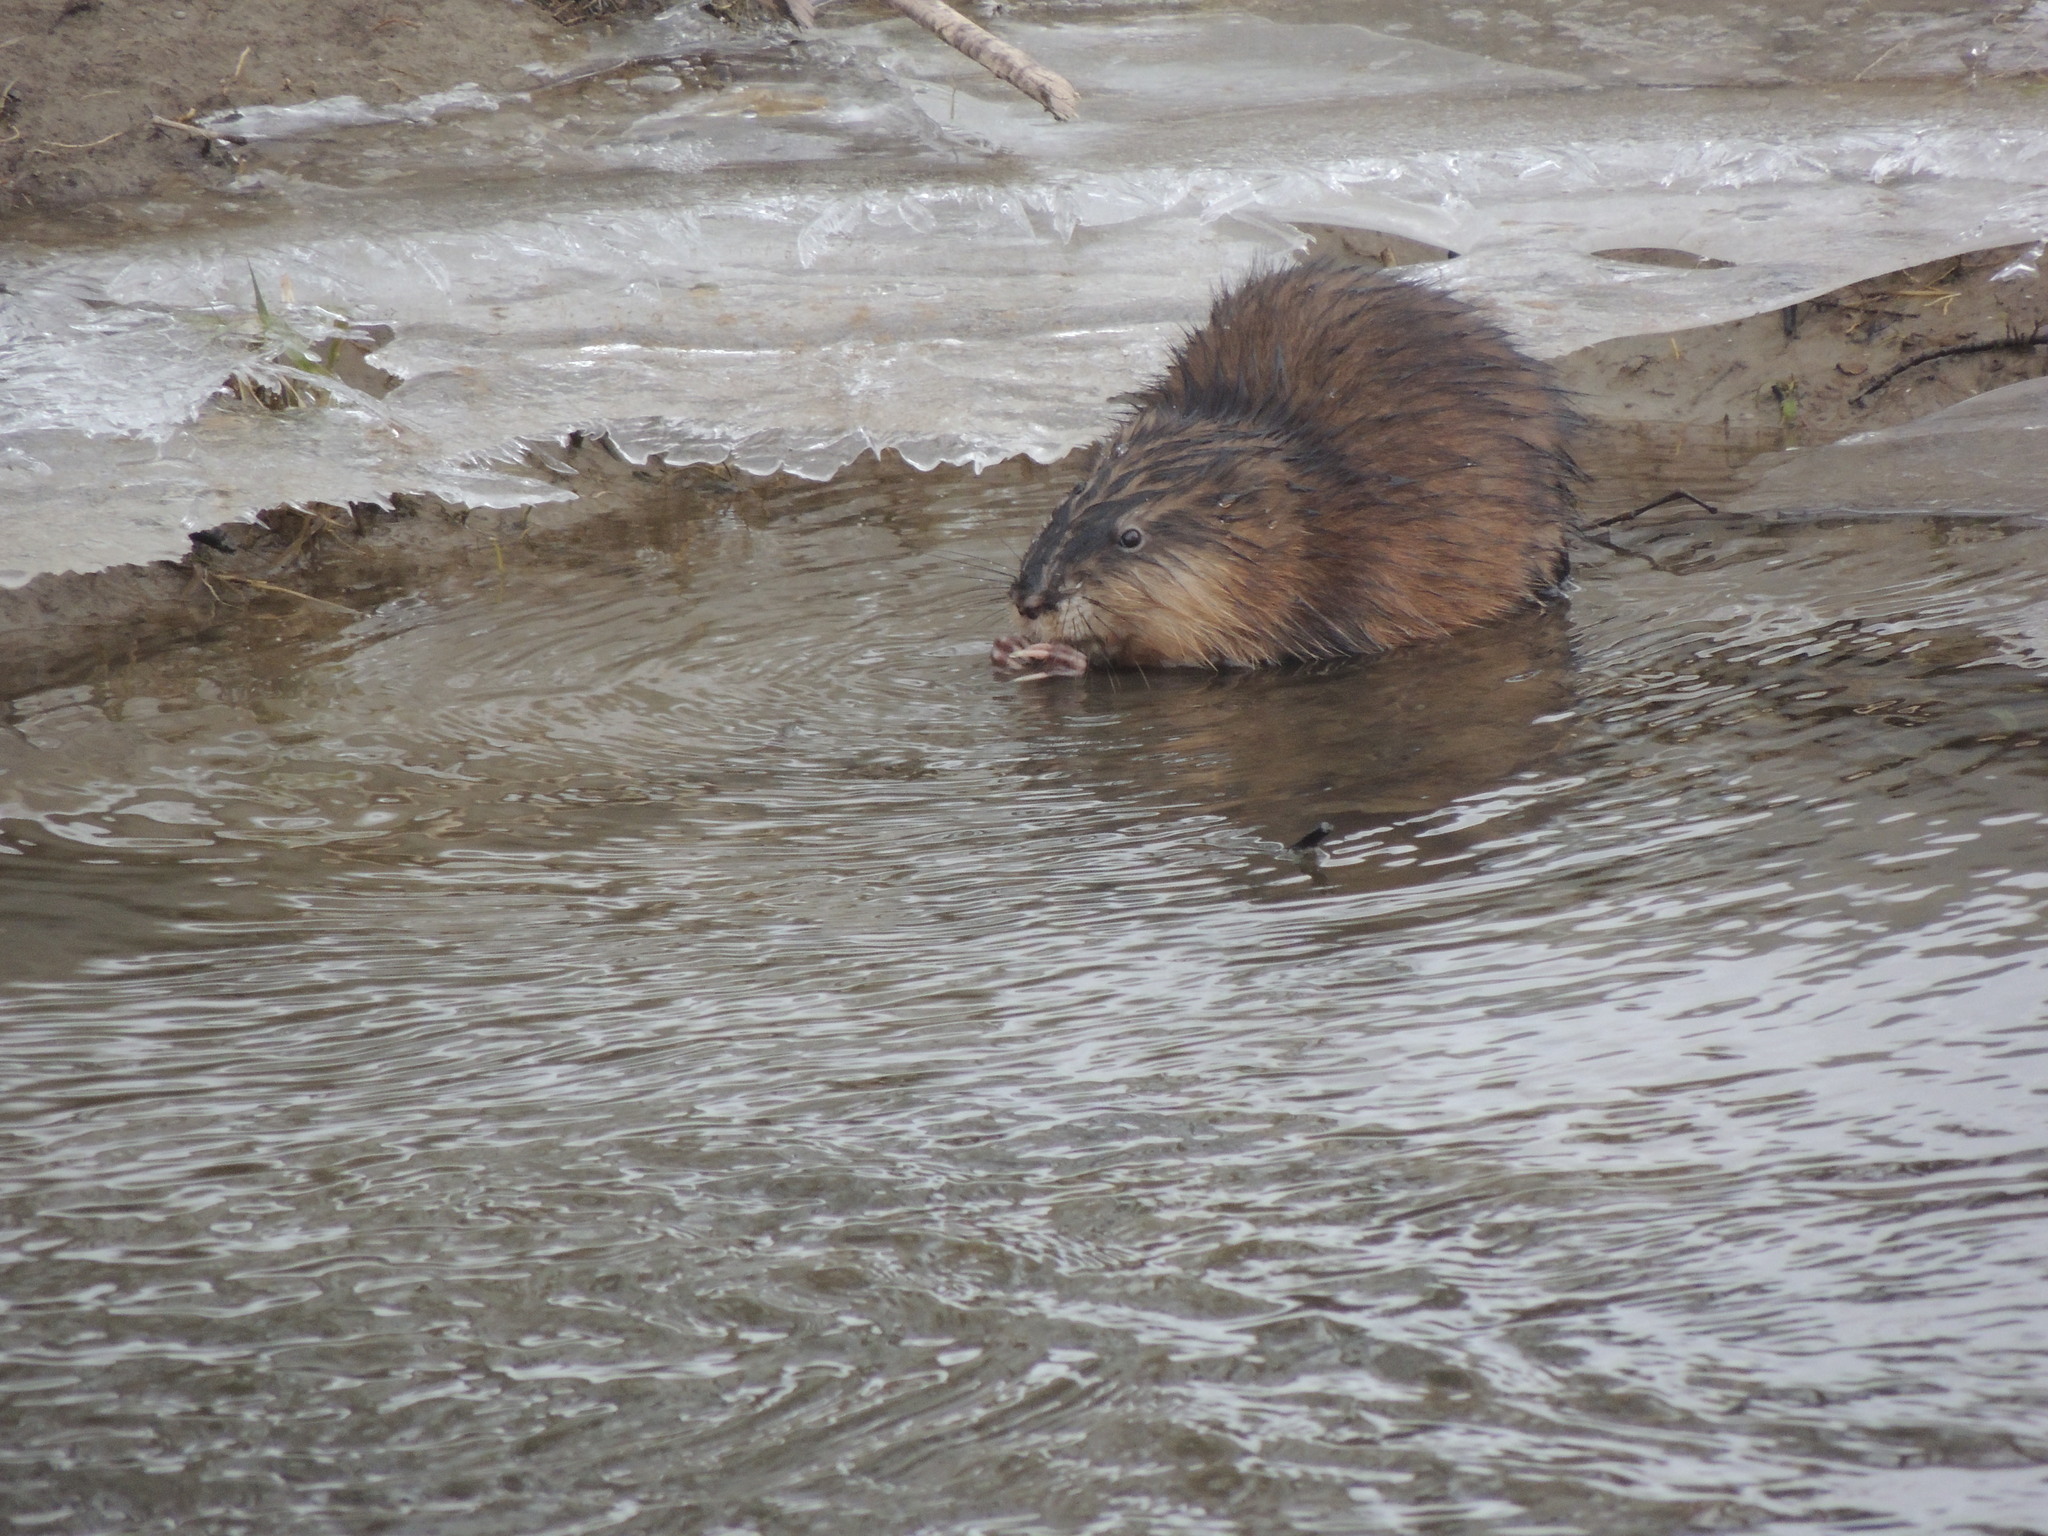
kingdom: Animalia
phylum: Chordata
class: Mammalia
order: Rodentia
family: Cricetidae
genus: Ondatra
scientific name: Ondatra zibethicus
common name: Muskrat
